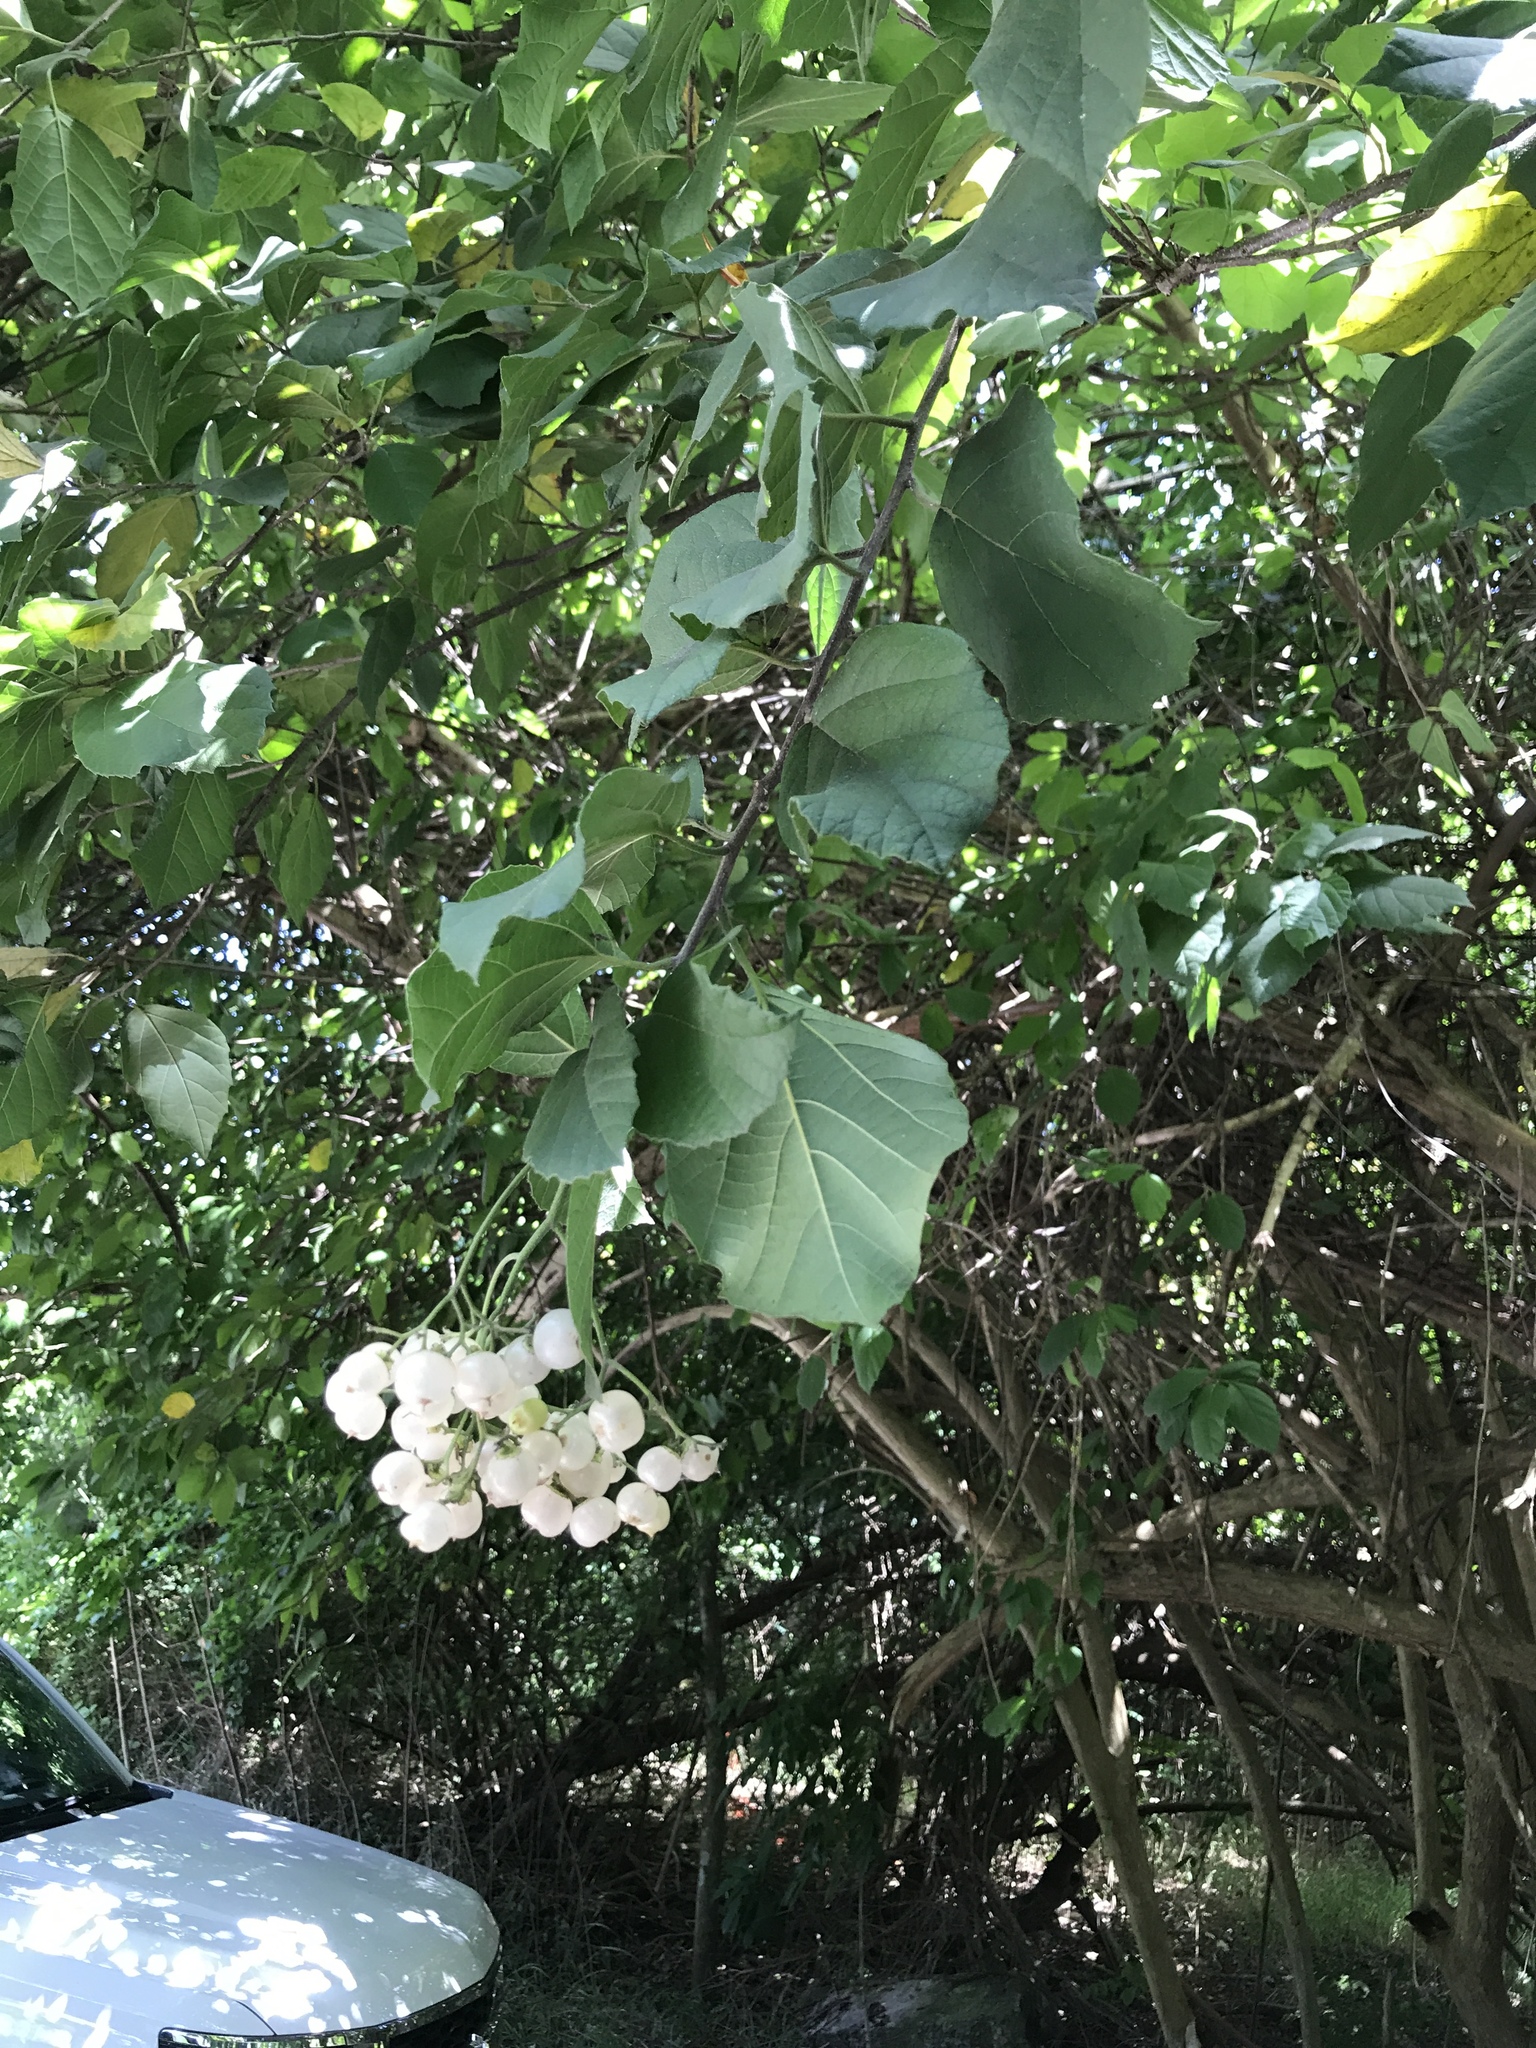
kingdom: Plantae
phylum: Tracheophyta
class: Magnoliopsida
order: Boraginales
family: Cordiaceae
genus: Cordia
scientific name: Cordia dentata
